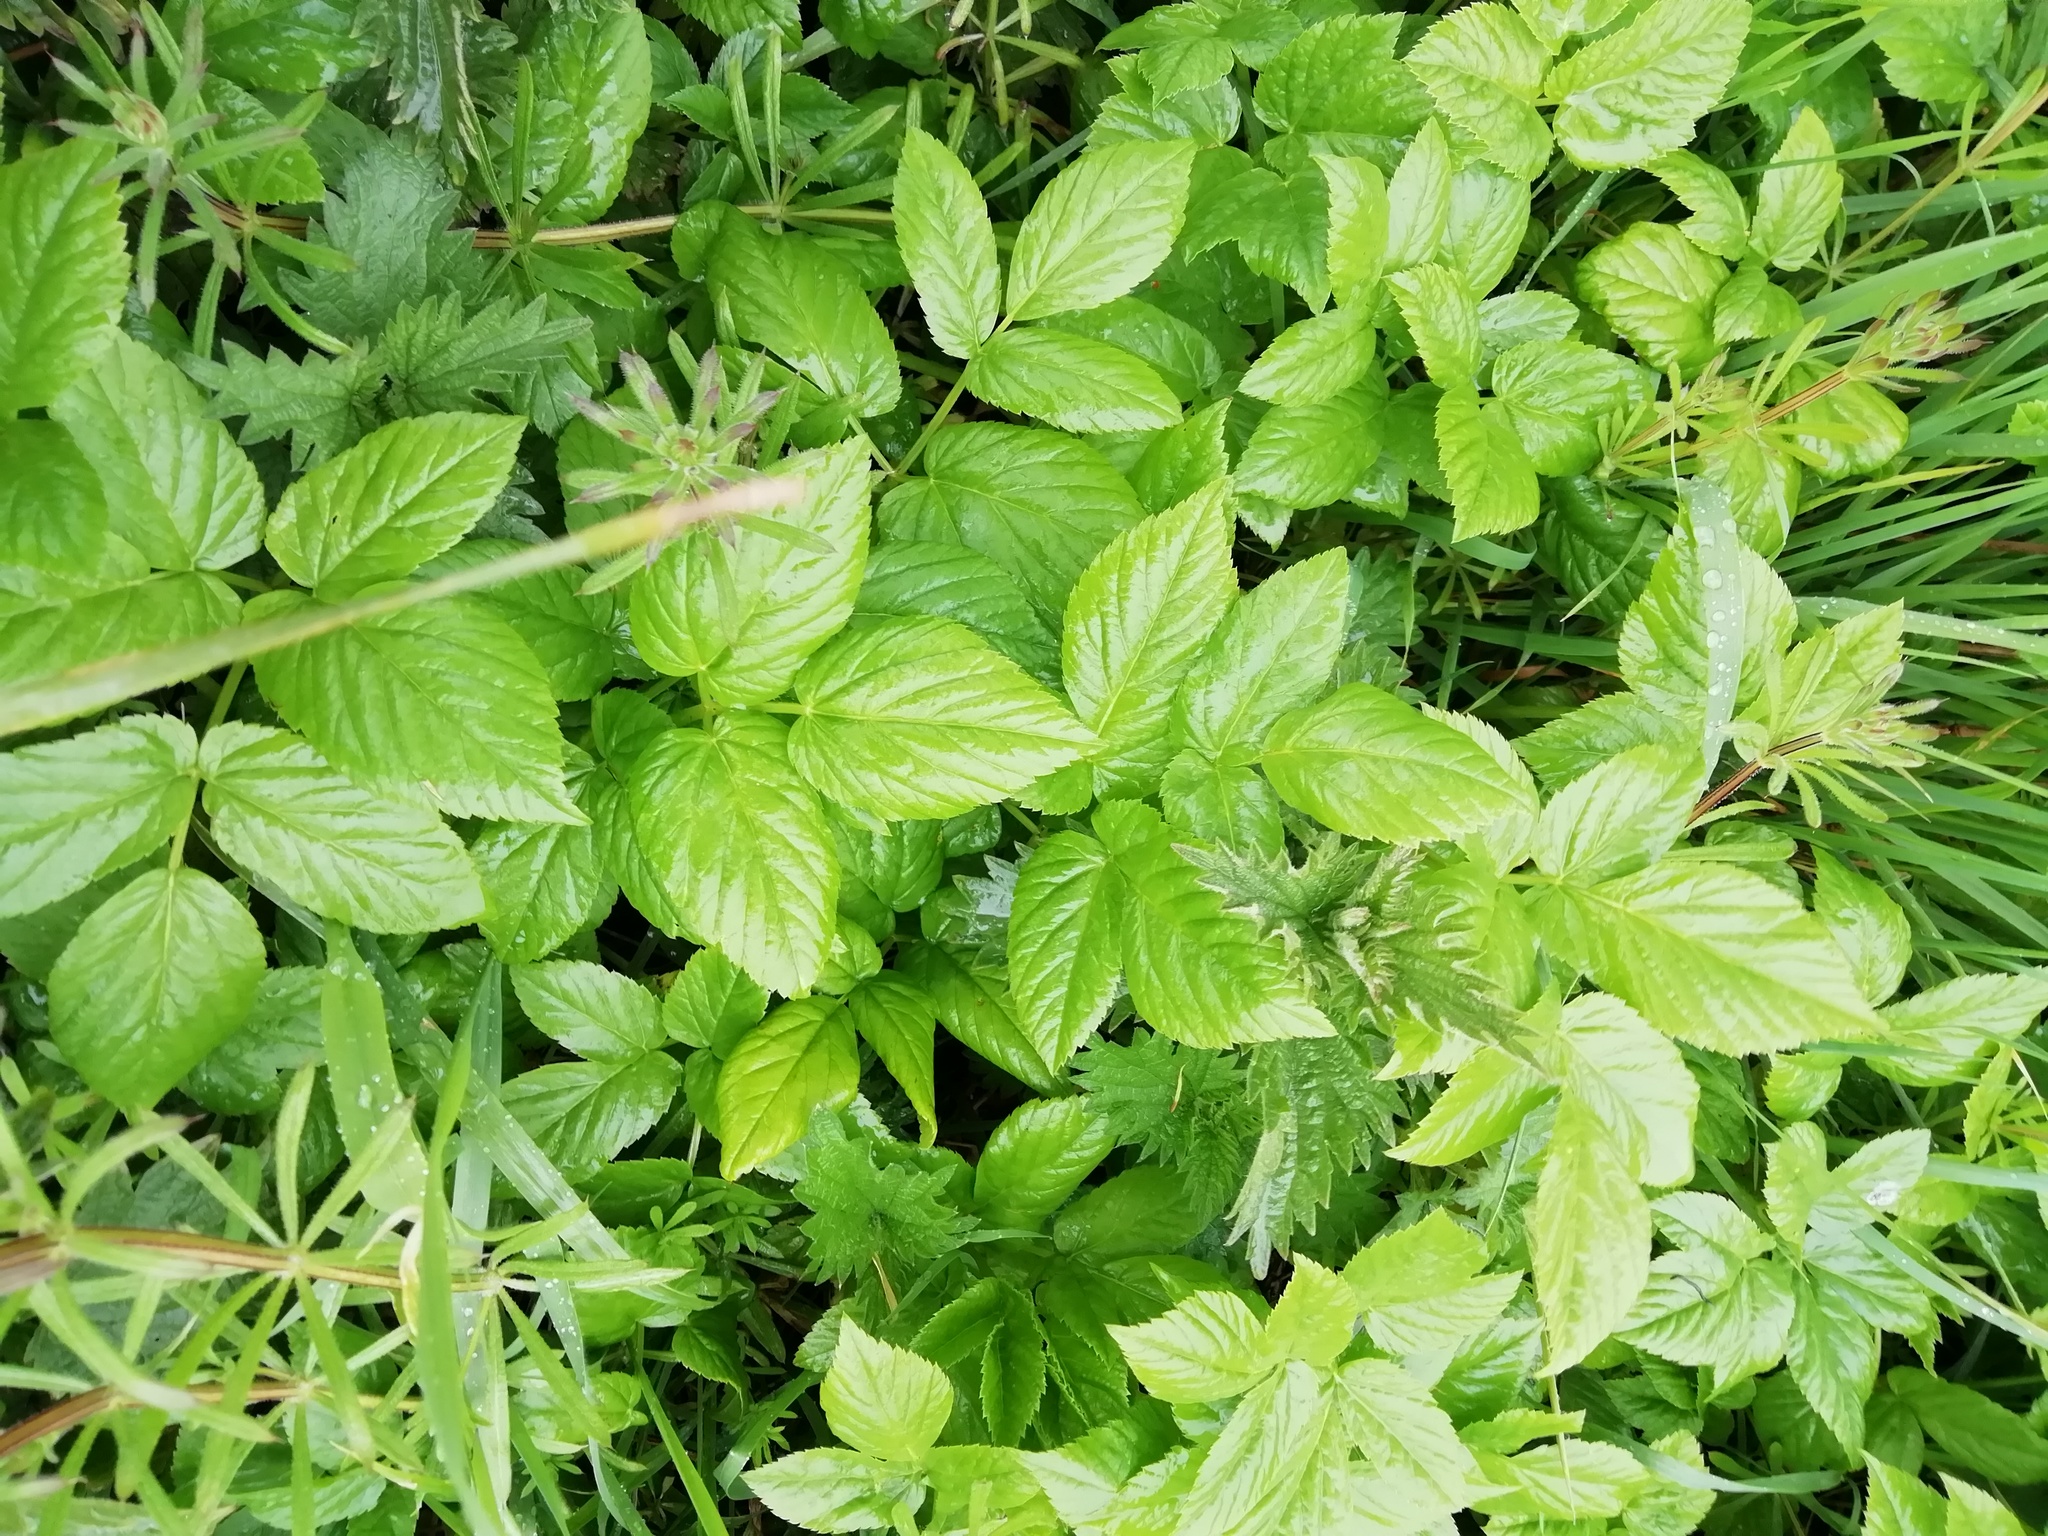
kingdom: Plantae
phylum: Tracheophyta
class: Magnoliopsida
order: Apiales
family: Apiaceae
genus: Aegopodium
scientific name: Aegopodium podagraria
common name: Ground-elder
